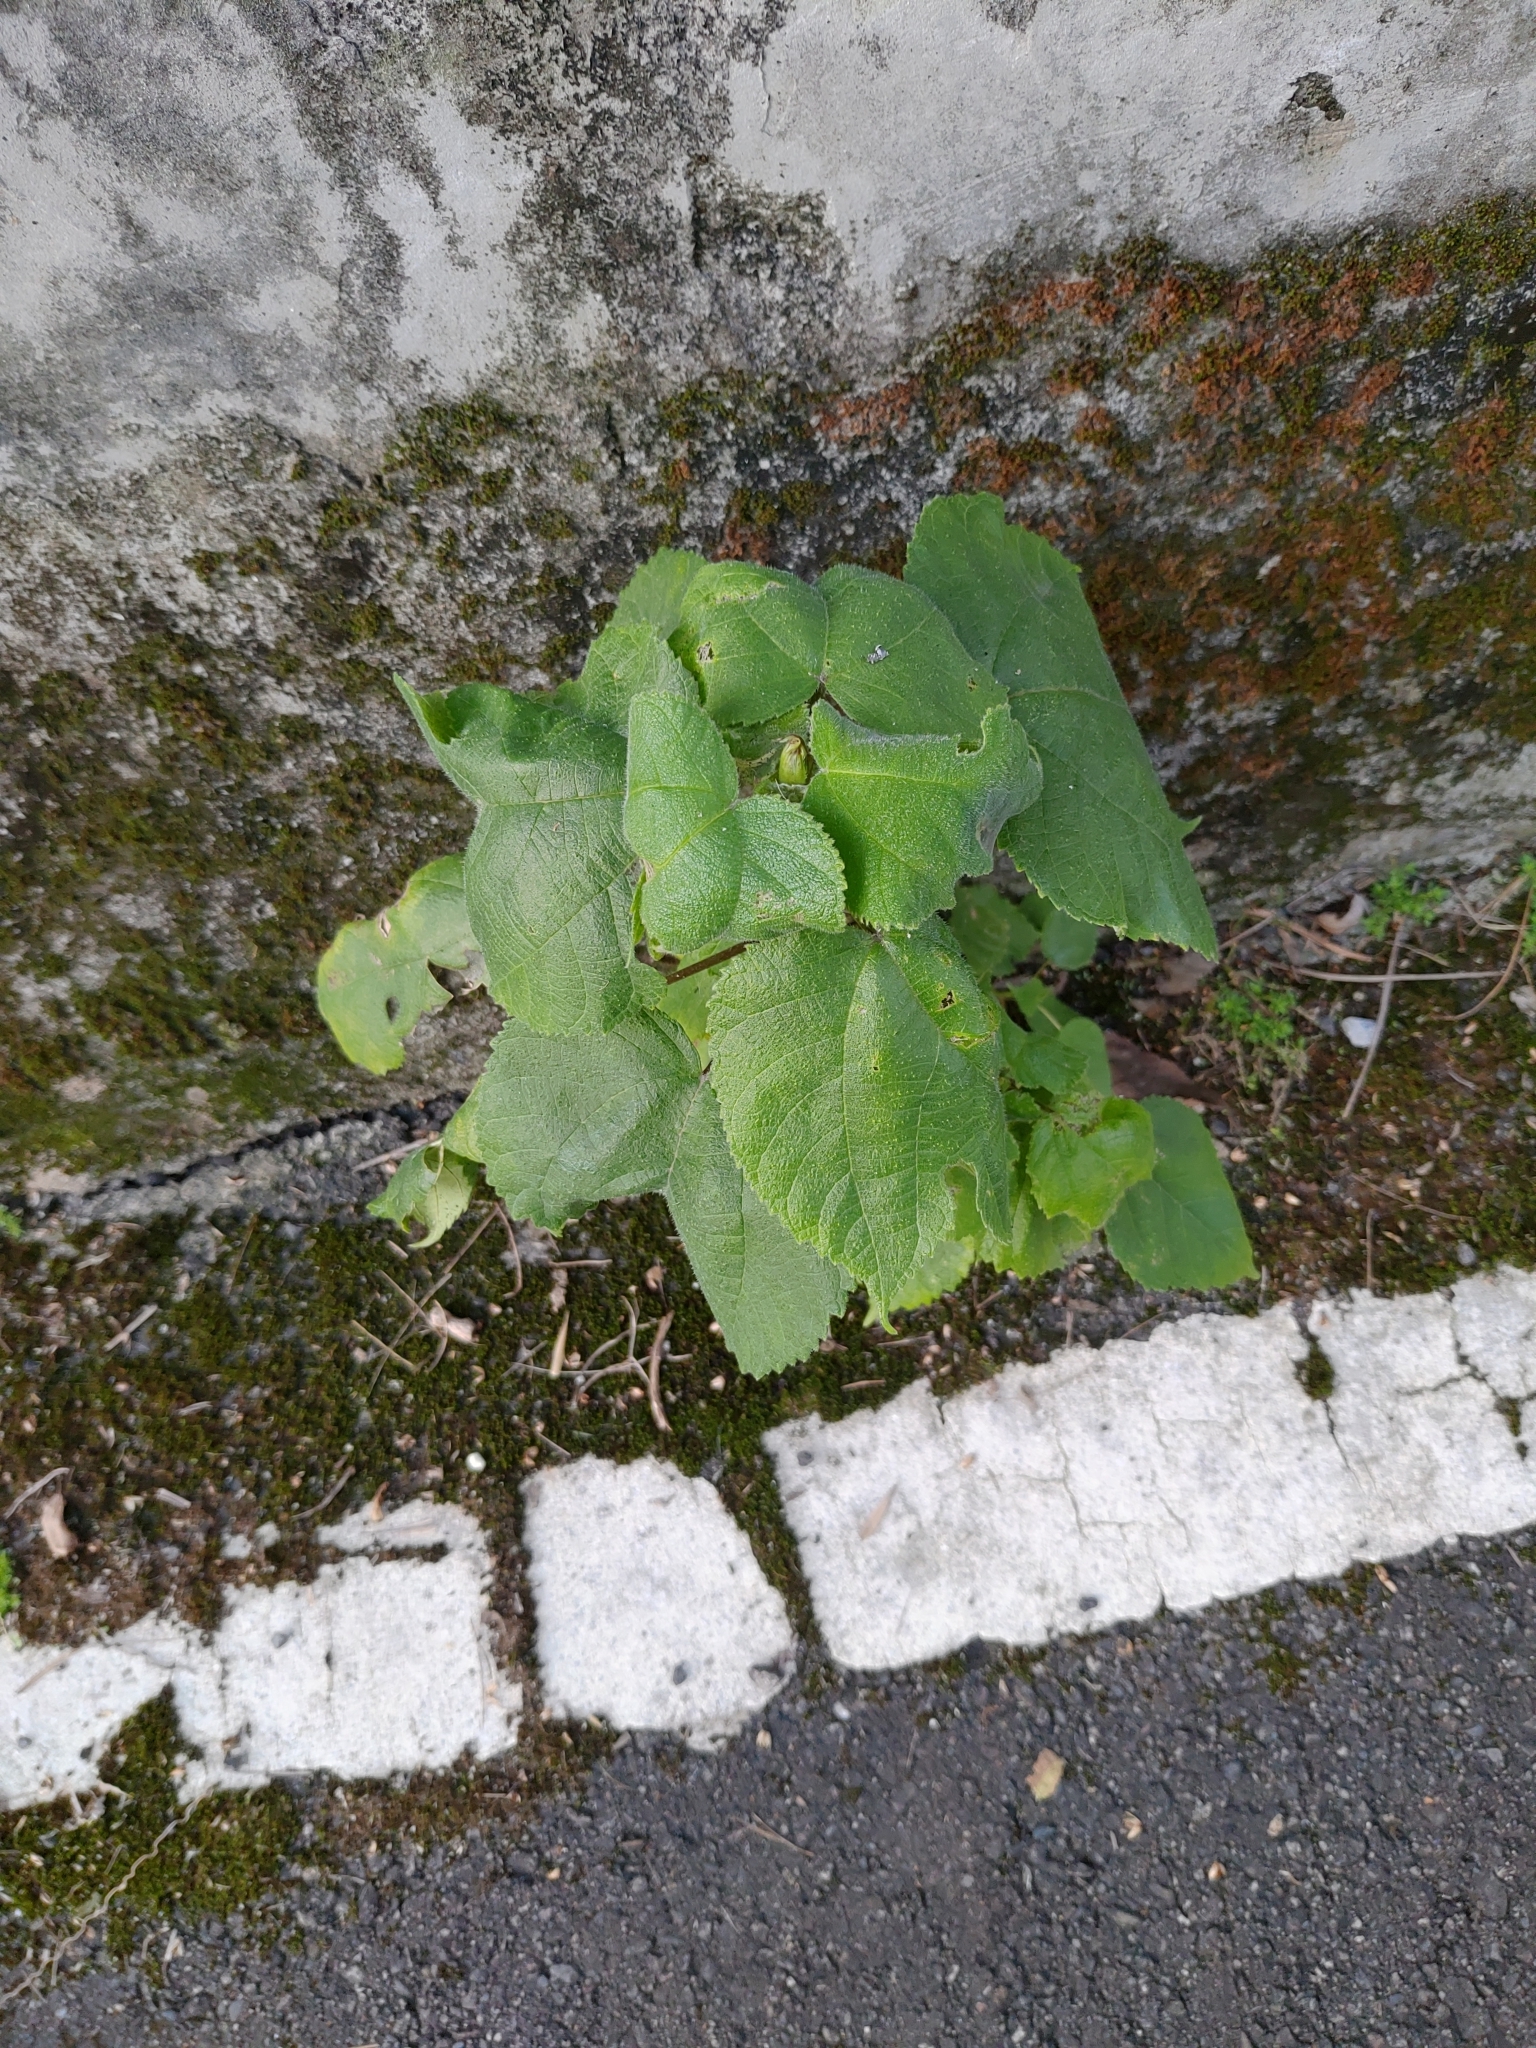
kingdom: Plantae
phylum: Tracheophyta
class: Magnoliopsida
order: Rosales
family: Moraceae
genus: Broussonetia
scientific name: Broussonetia papyrifera
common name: Paper mulberry
